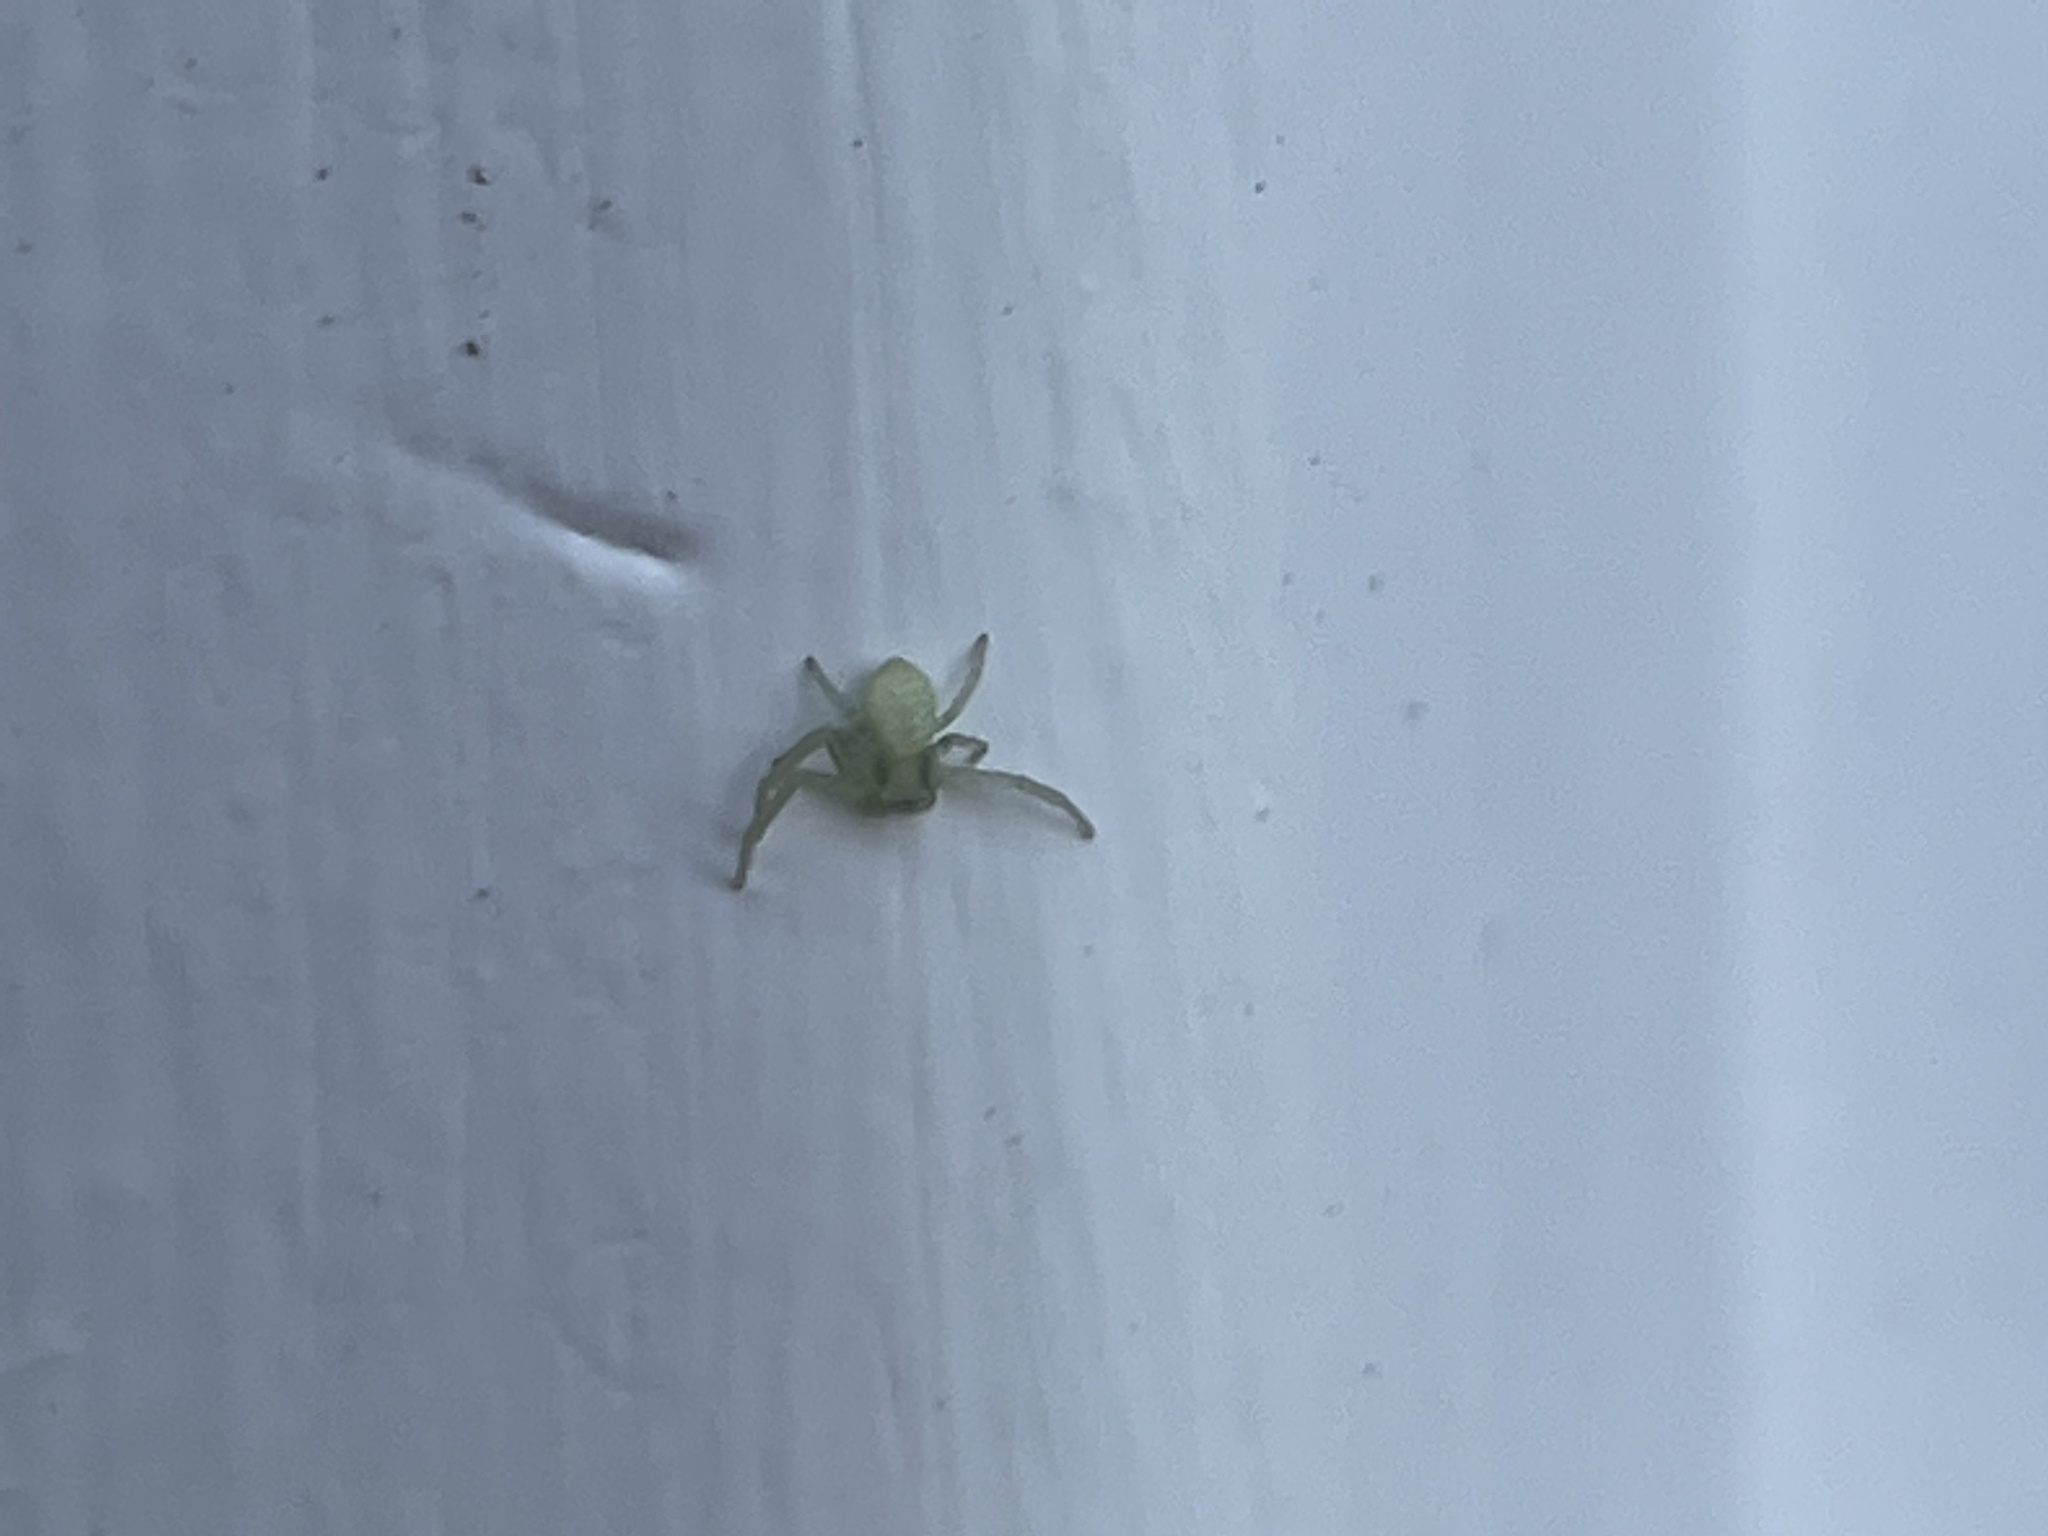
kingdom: Animalia
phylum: Arthropoda
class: Arachnida
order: Araneae
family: Thomisidae
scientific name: Thomisidae
